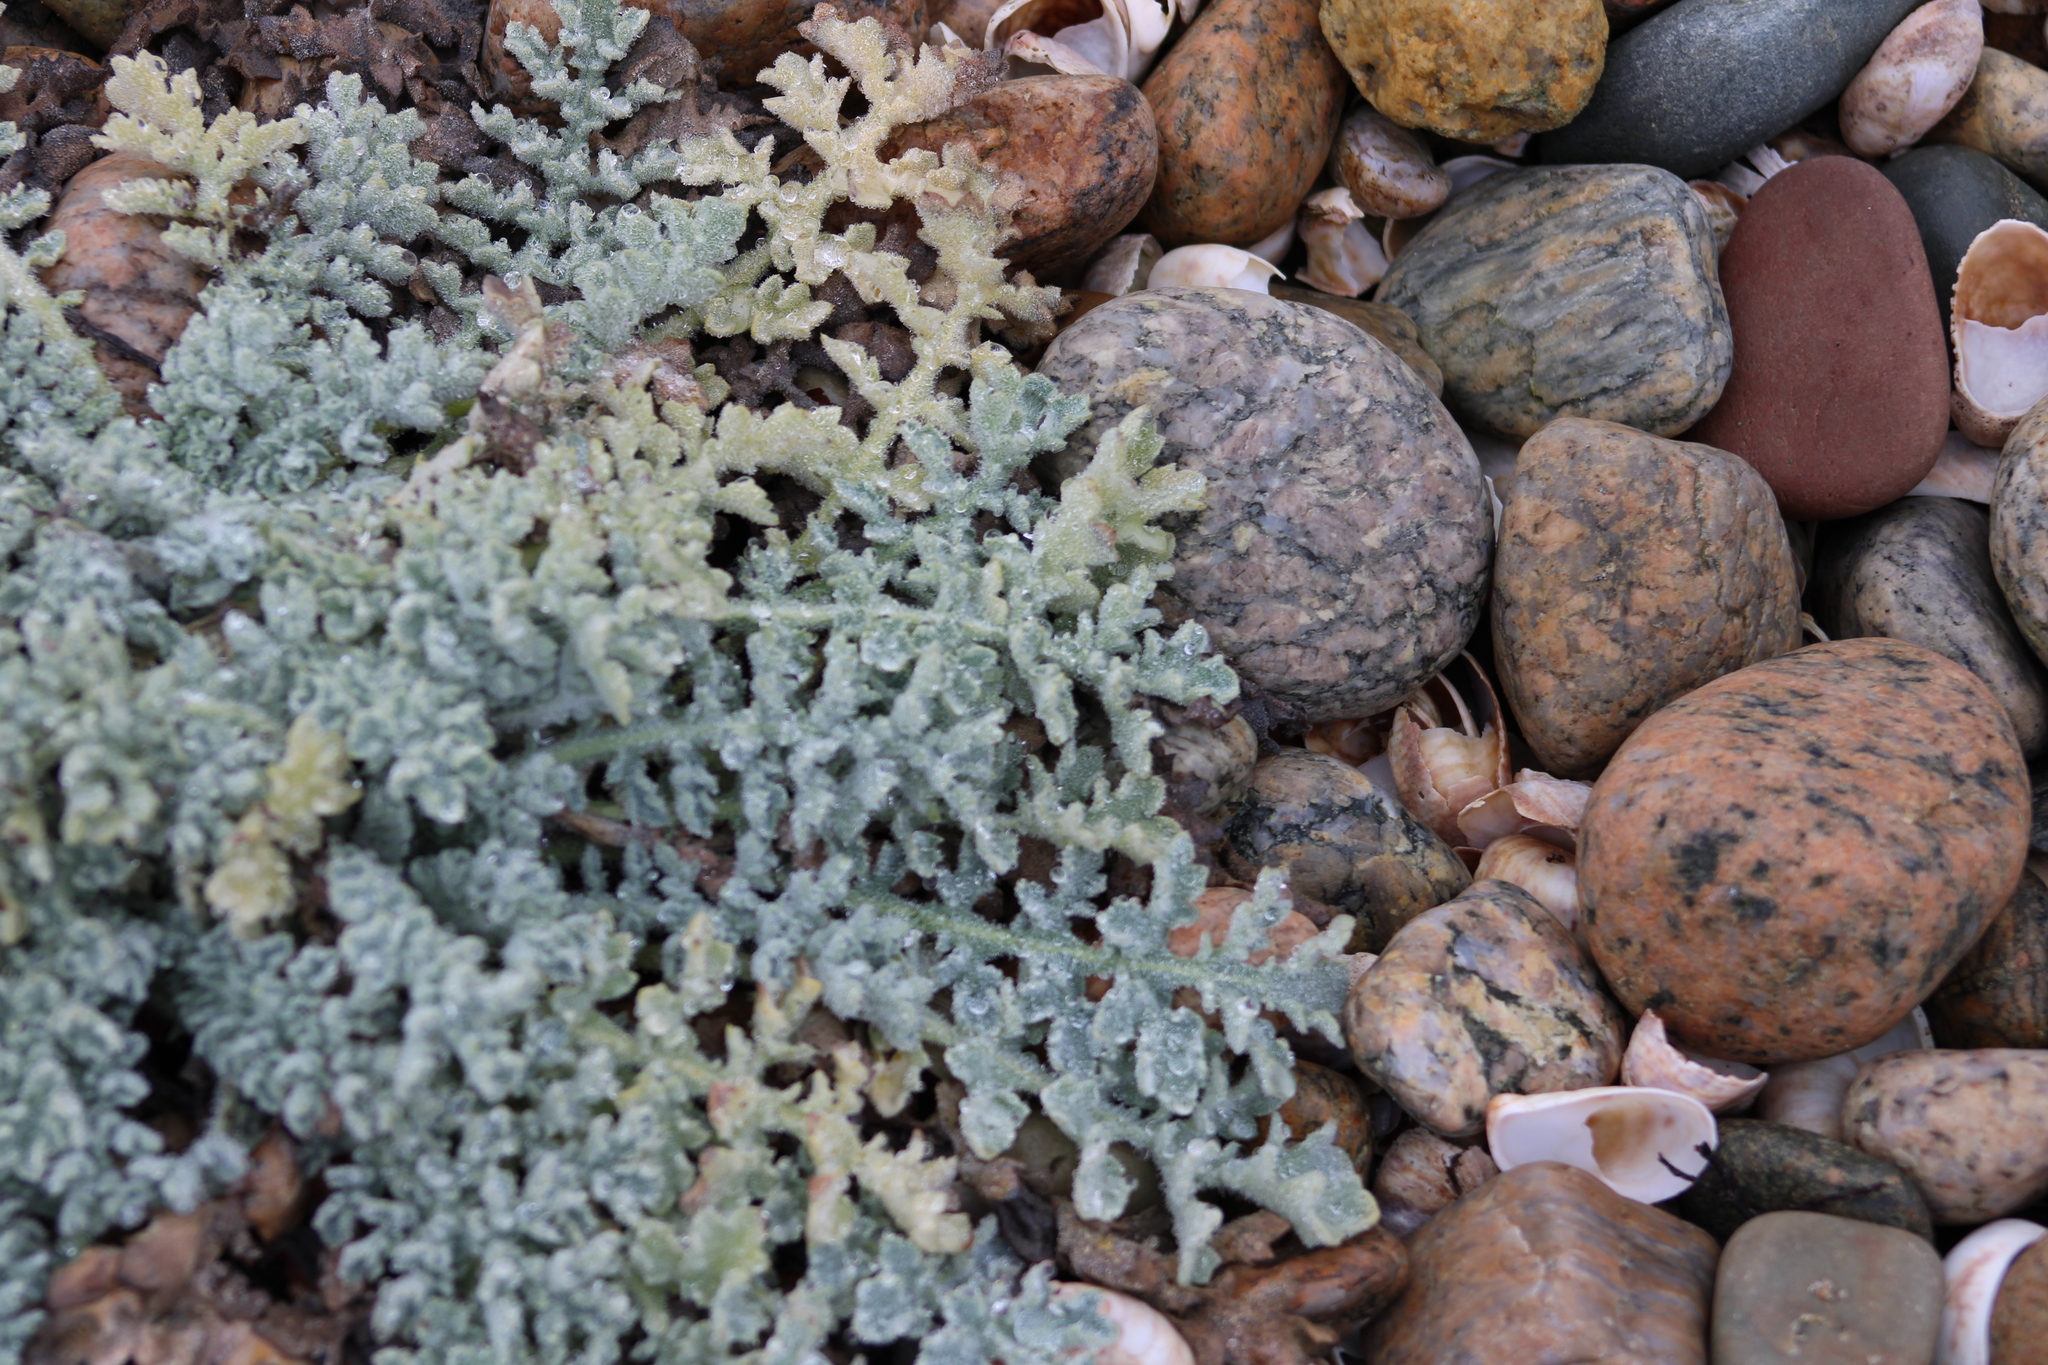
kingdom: Plantae
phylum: Tracheophyta
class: Magnoliopsida
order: Ranunculales
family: Papaveraceae
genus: Glaucium
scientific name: Glaucium flavum
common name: Yellow horned-poppy
